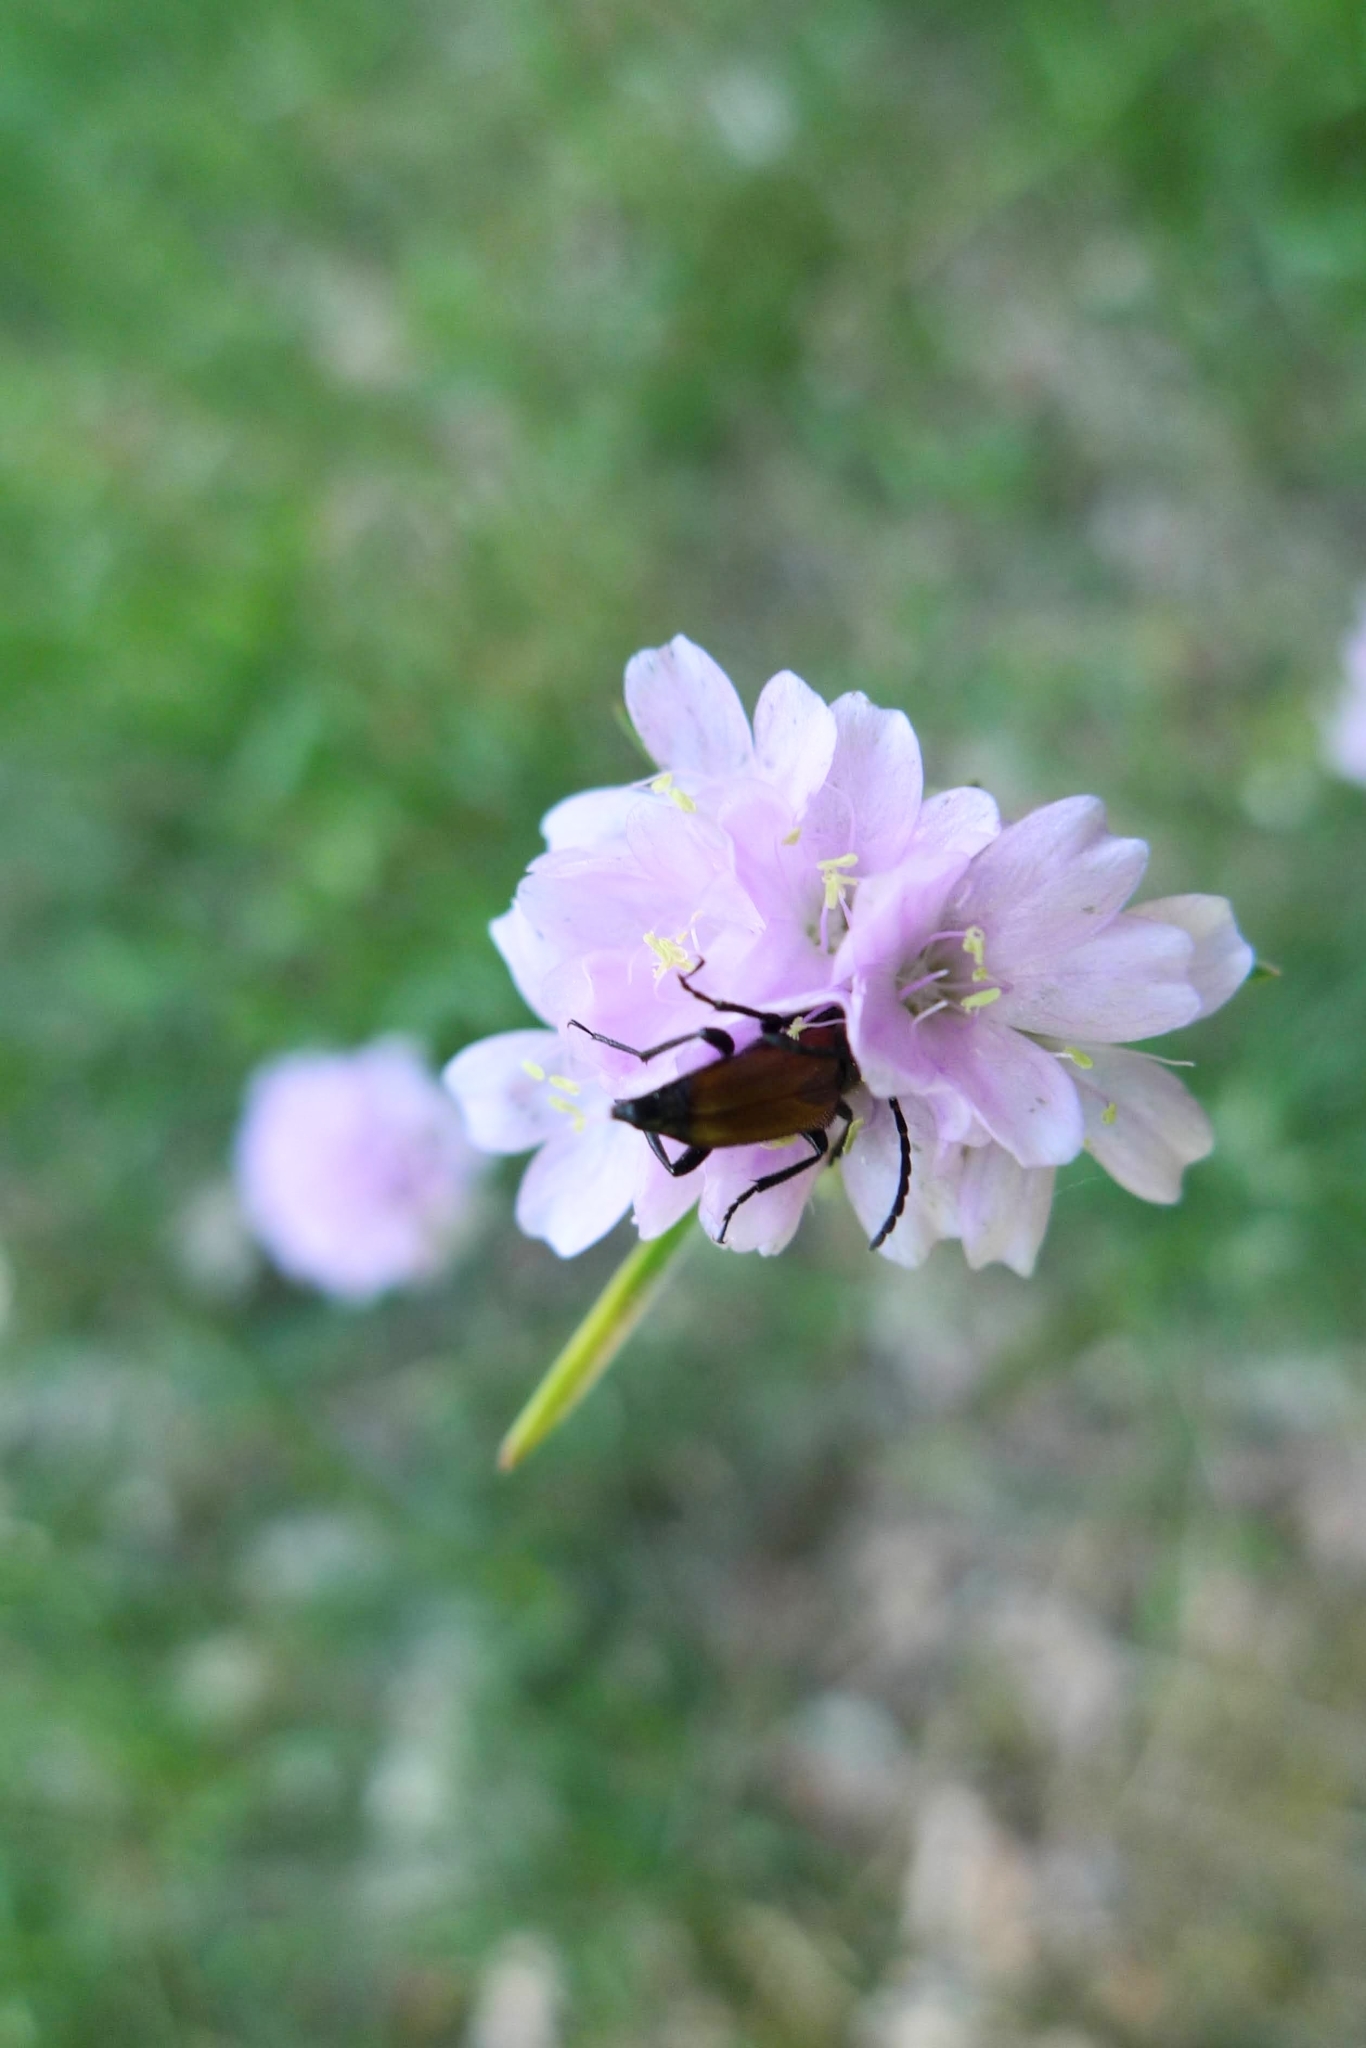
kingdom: Animalia
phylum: Arthropoda
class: Insecta
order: Coleoptera
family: Cerambycidae
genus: Paracorymbia
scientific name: Paracorymbia maculicornis
